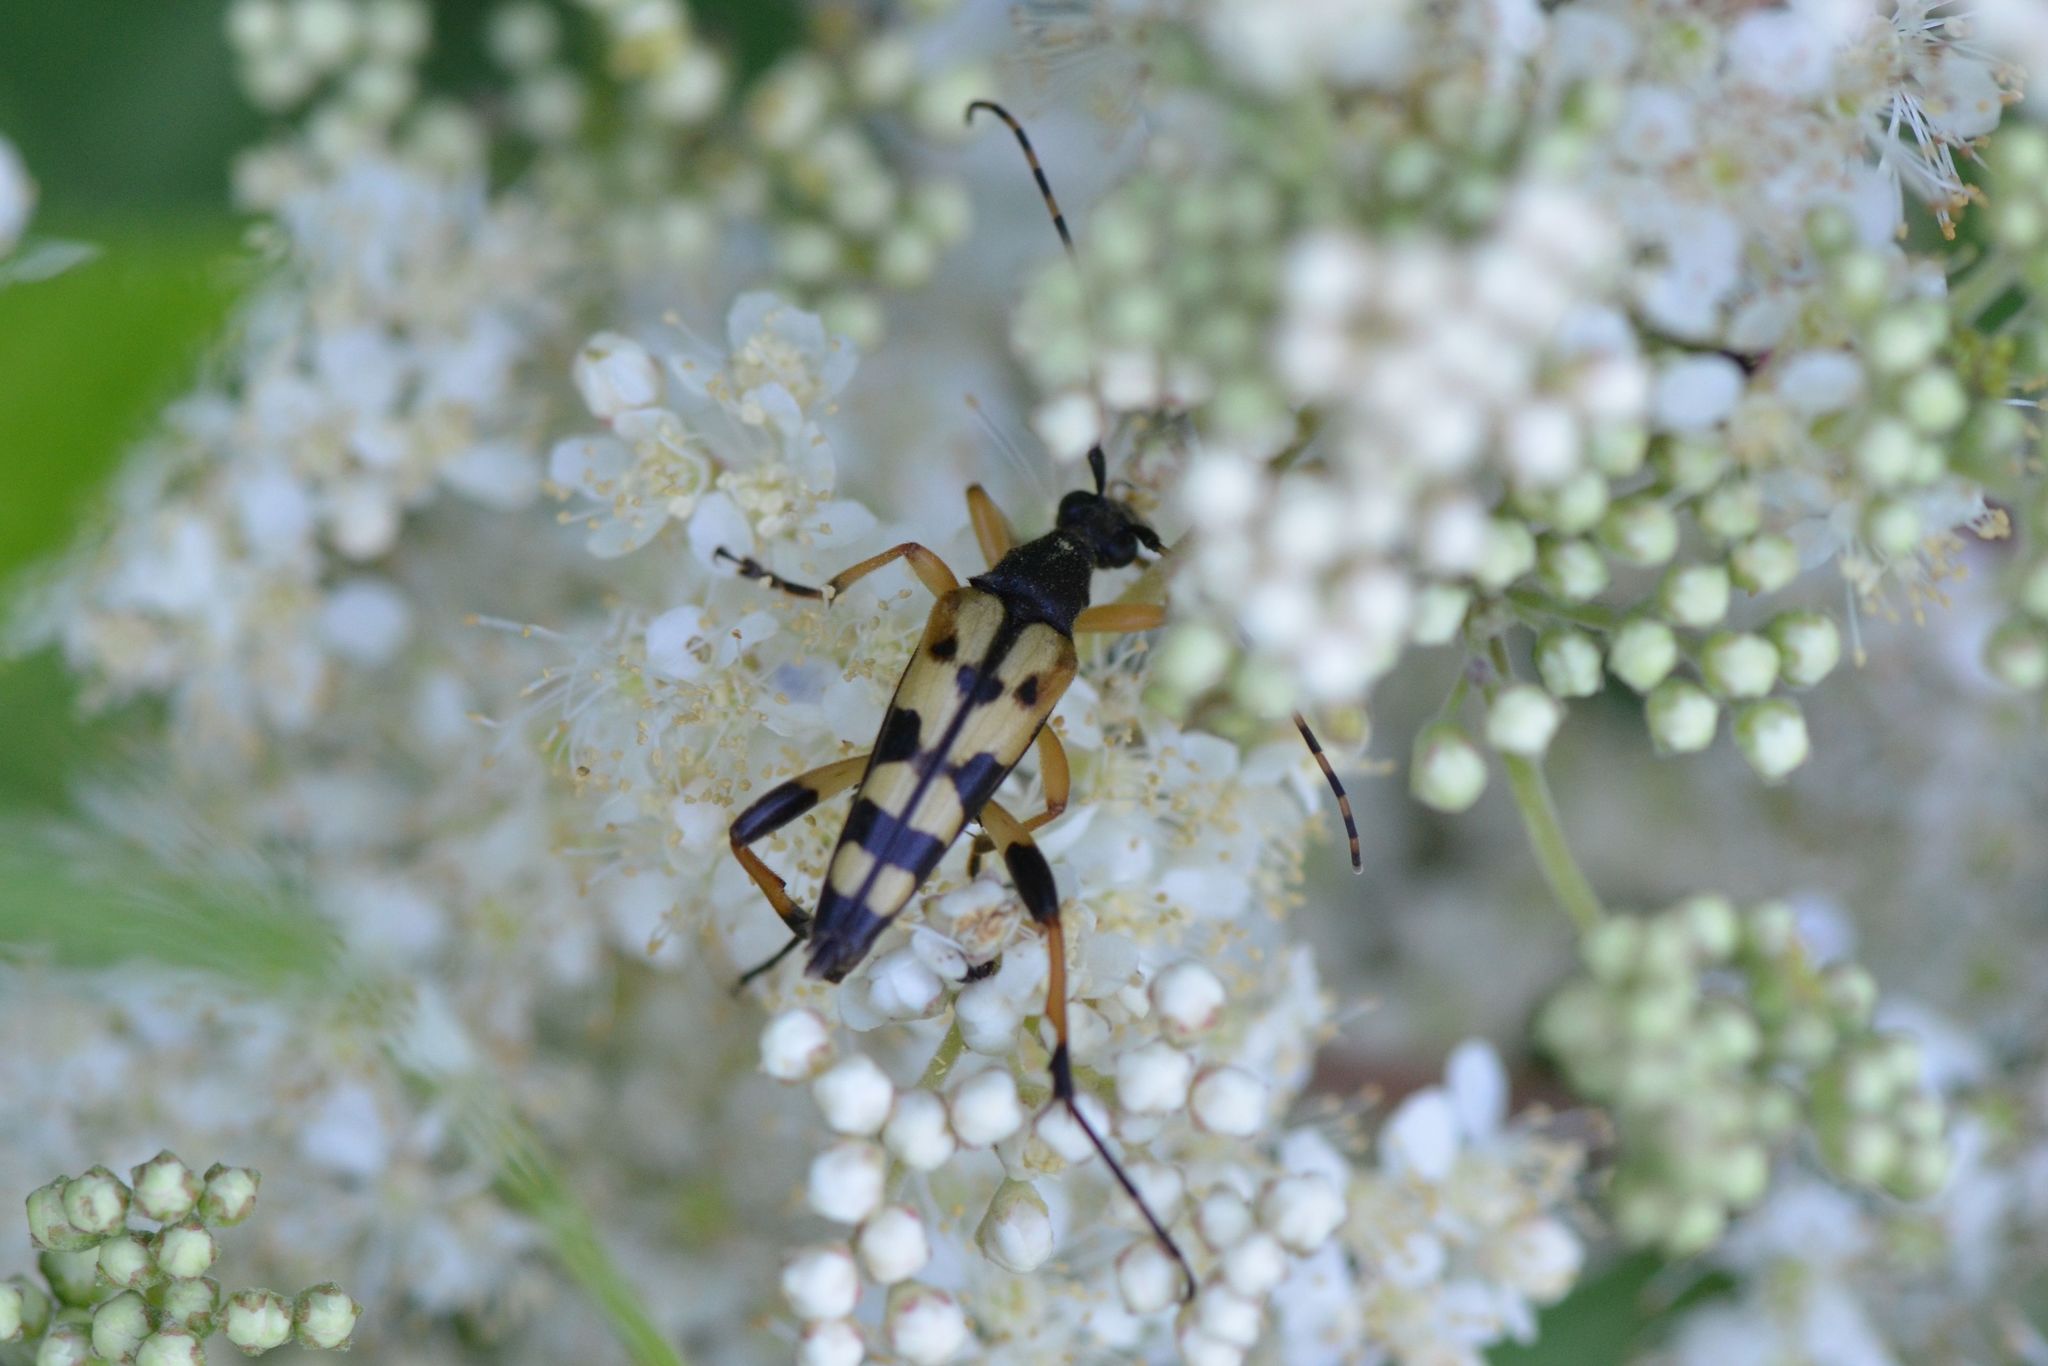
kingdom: Animalia
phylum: Arthropoda
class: Insecta
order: Coleoptera
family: Cerambycidae
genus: Rutpela
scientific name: Rutpela maculata
